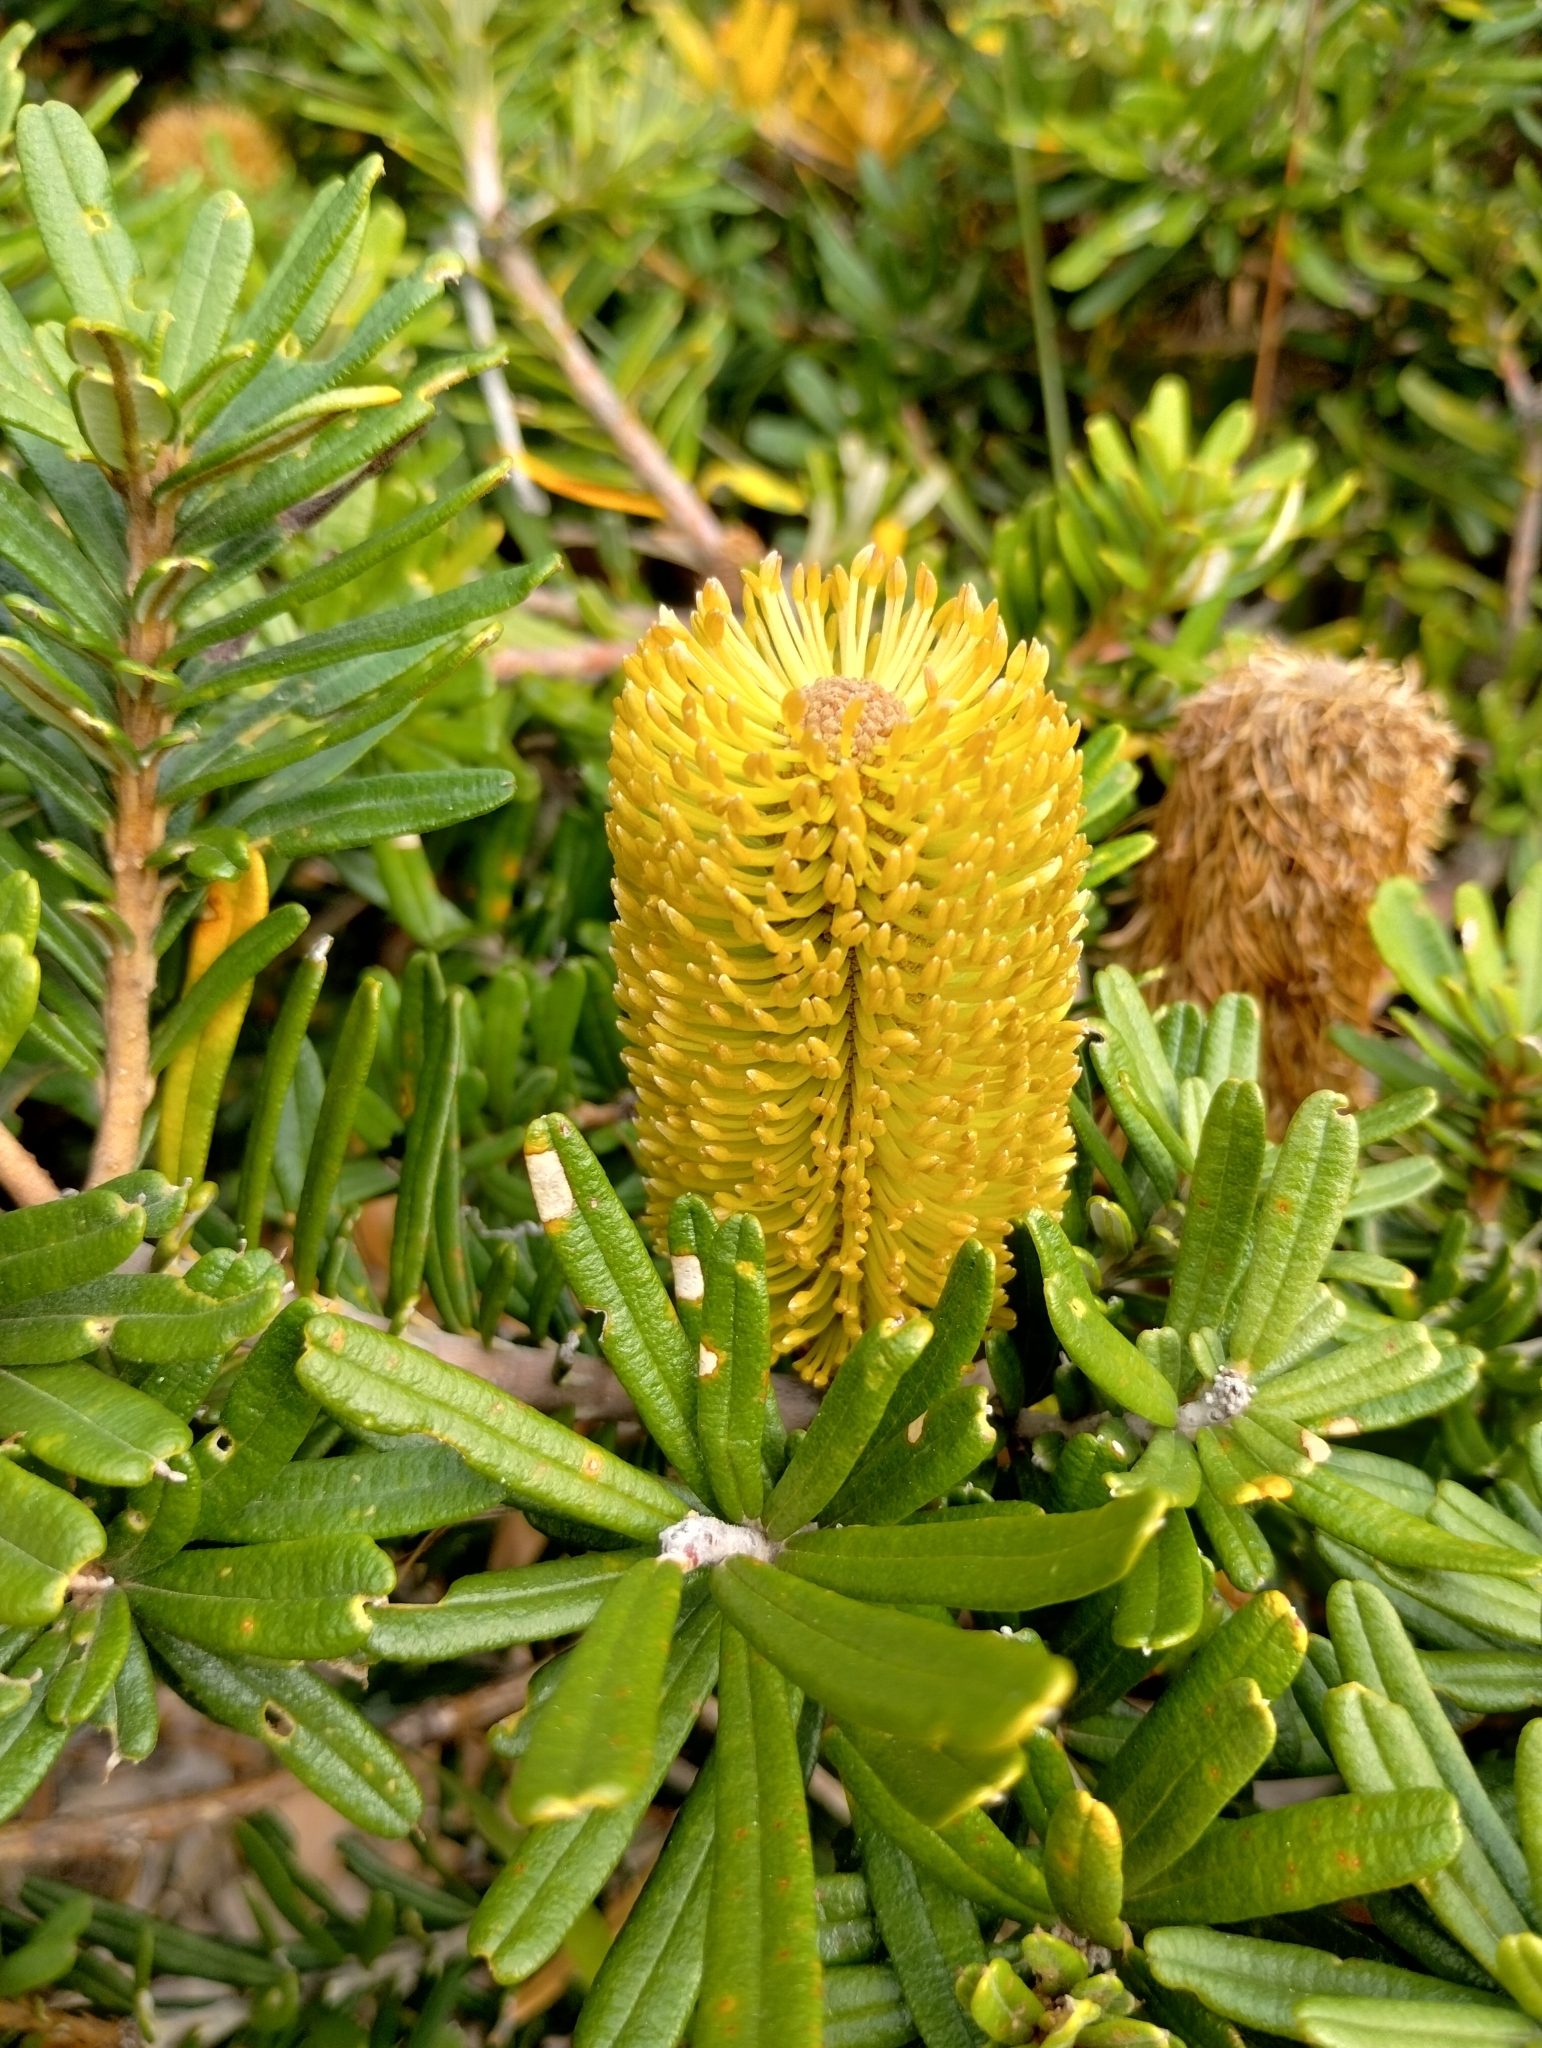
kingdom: Plantae
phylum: Tracheophyta
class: Magnoliopsida
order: Proteales
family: Proteaceae
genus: Banksia
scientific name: Banksia marginata
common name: Silver banksia
